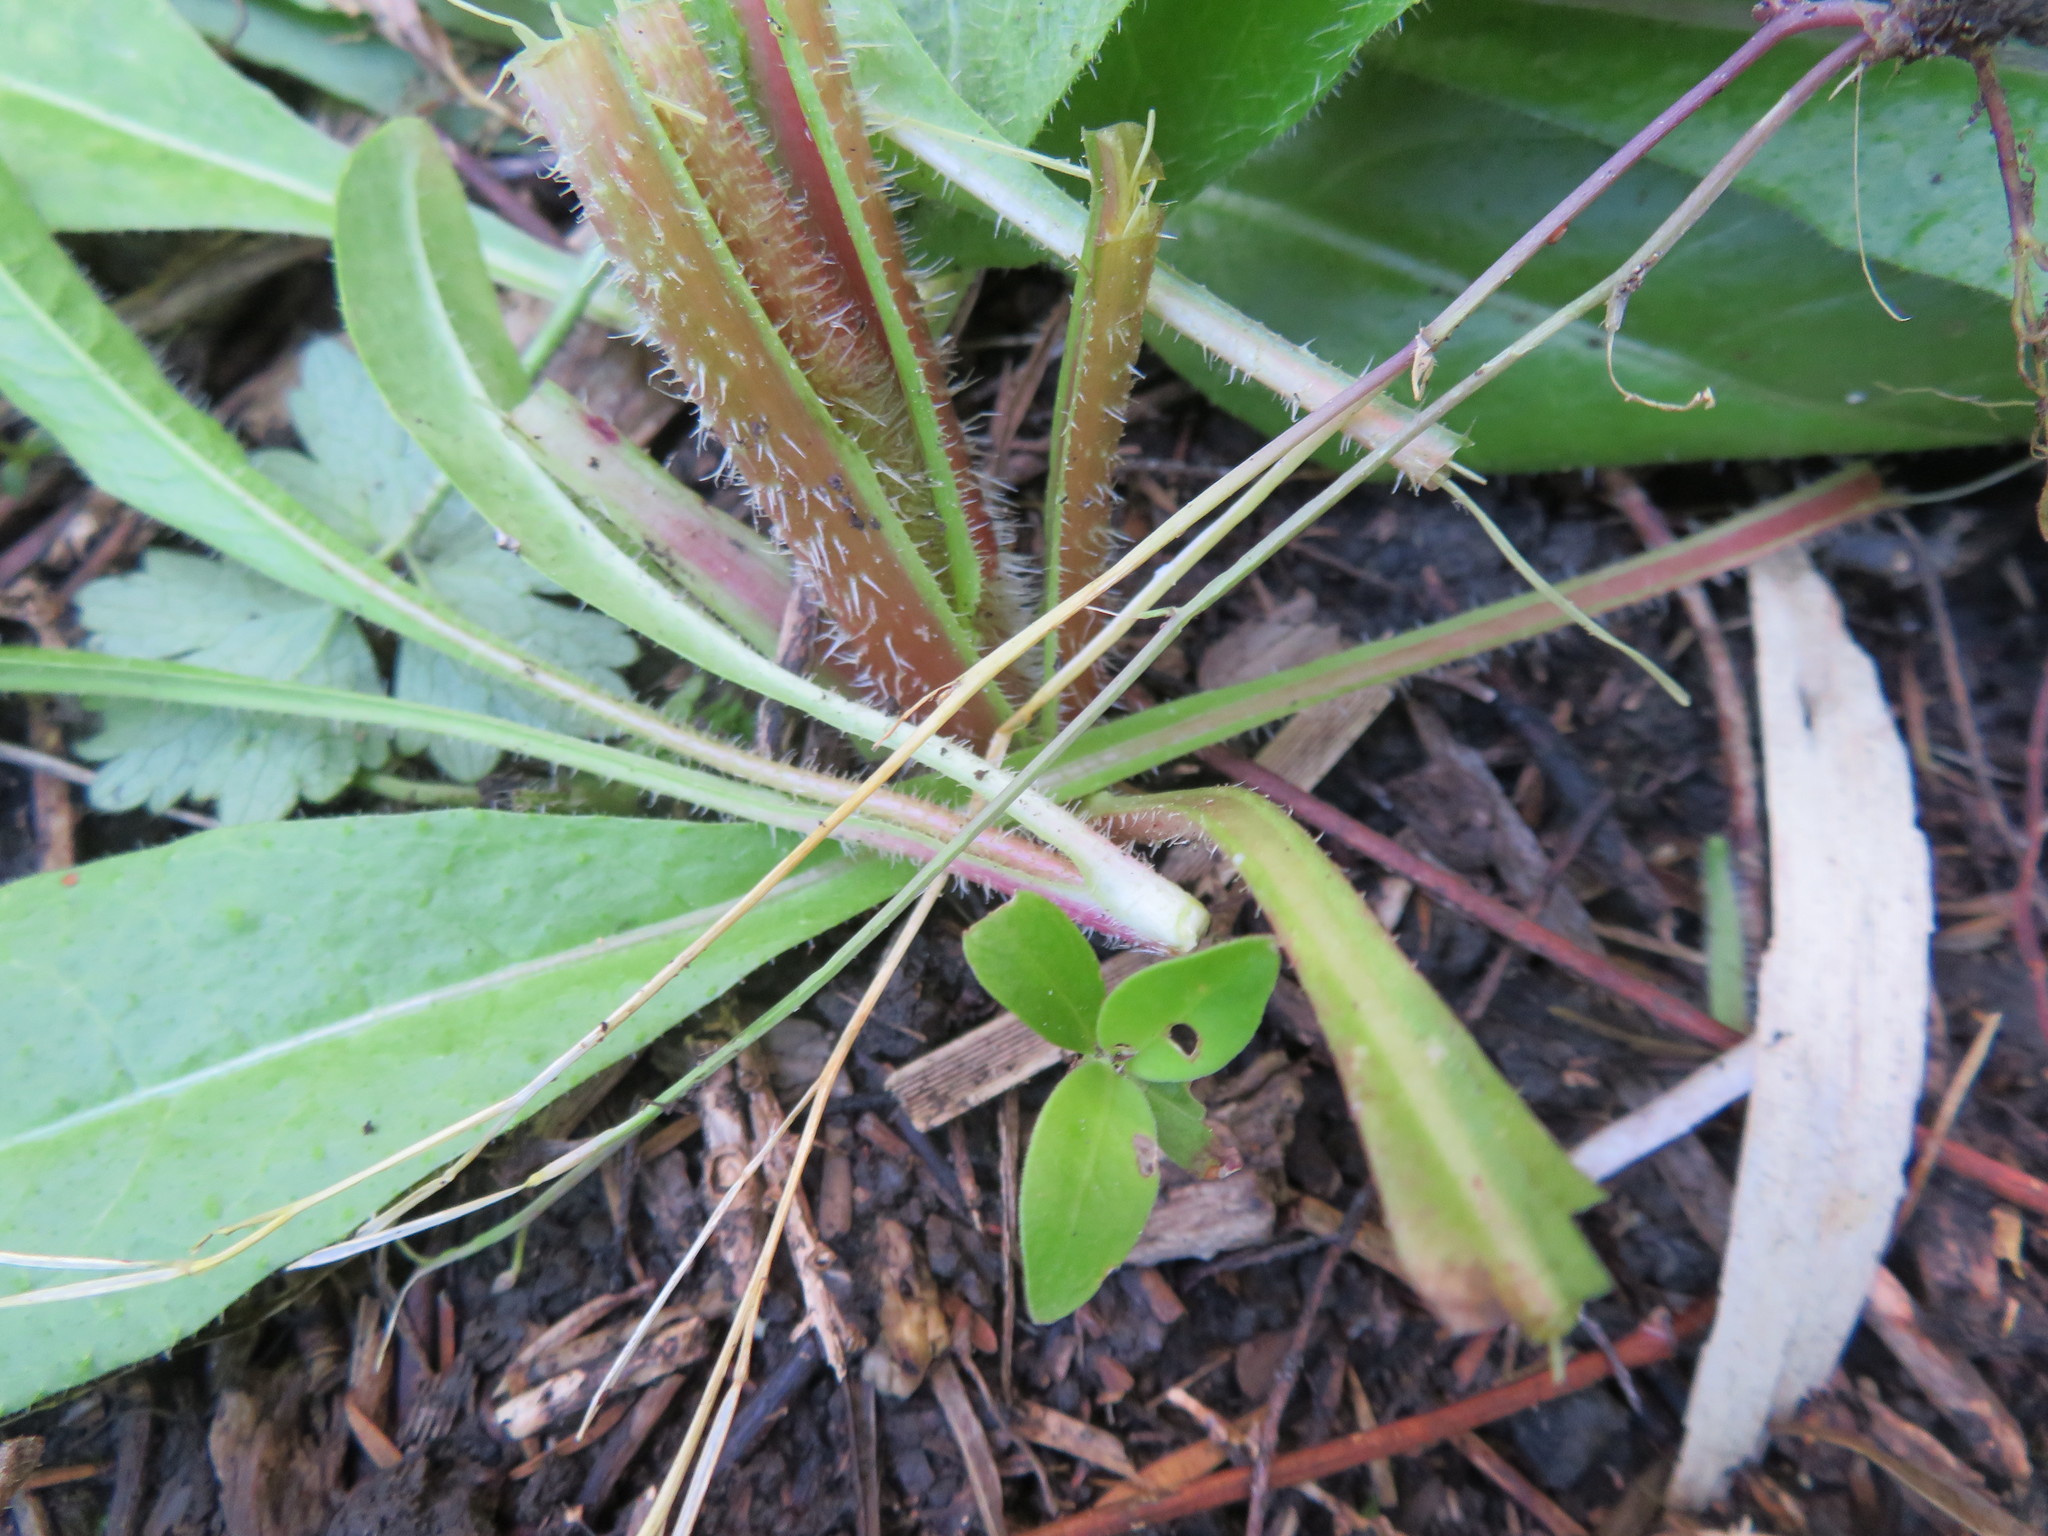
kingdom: Plantae
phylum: Tracheophyta
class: Magnoliopsida
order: Gentianales
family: Rubiaceae
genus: Coprosma
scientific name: Coprosma robusta
